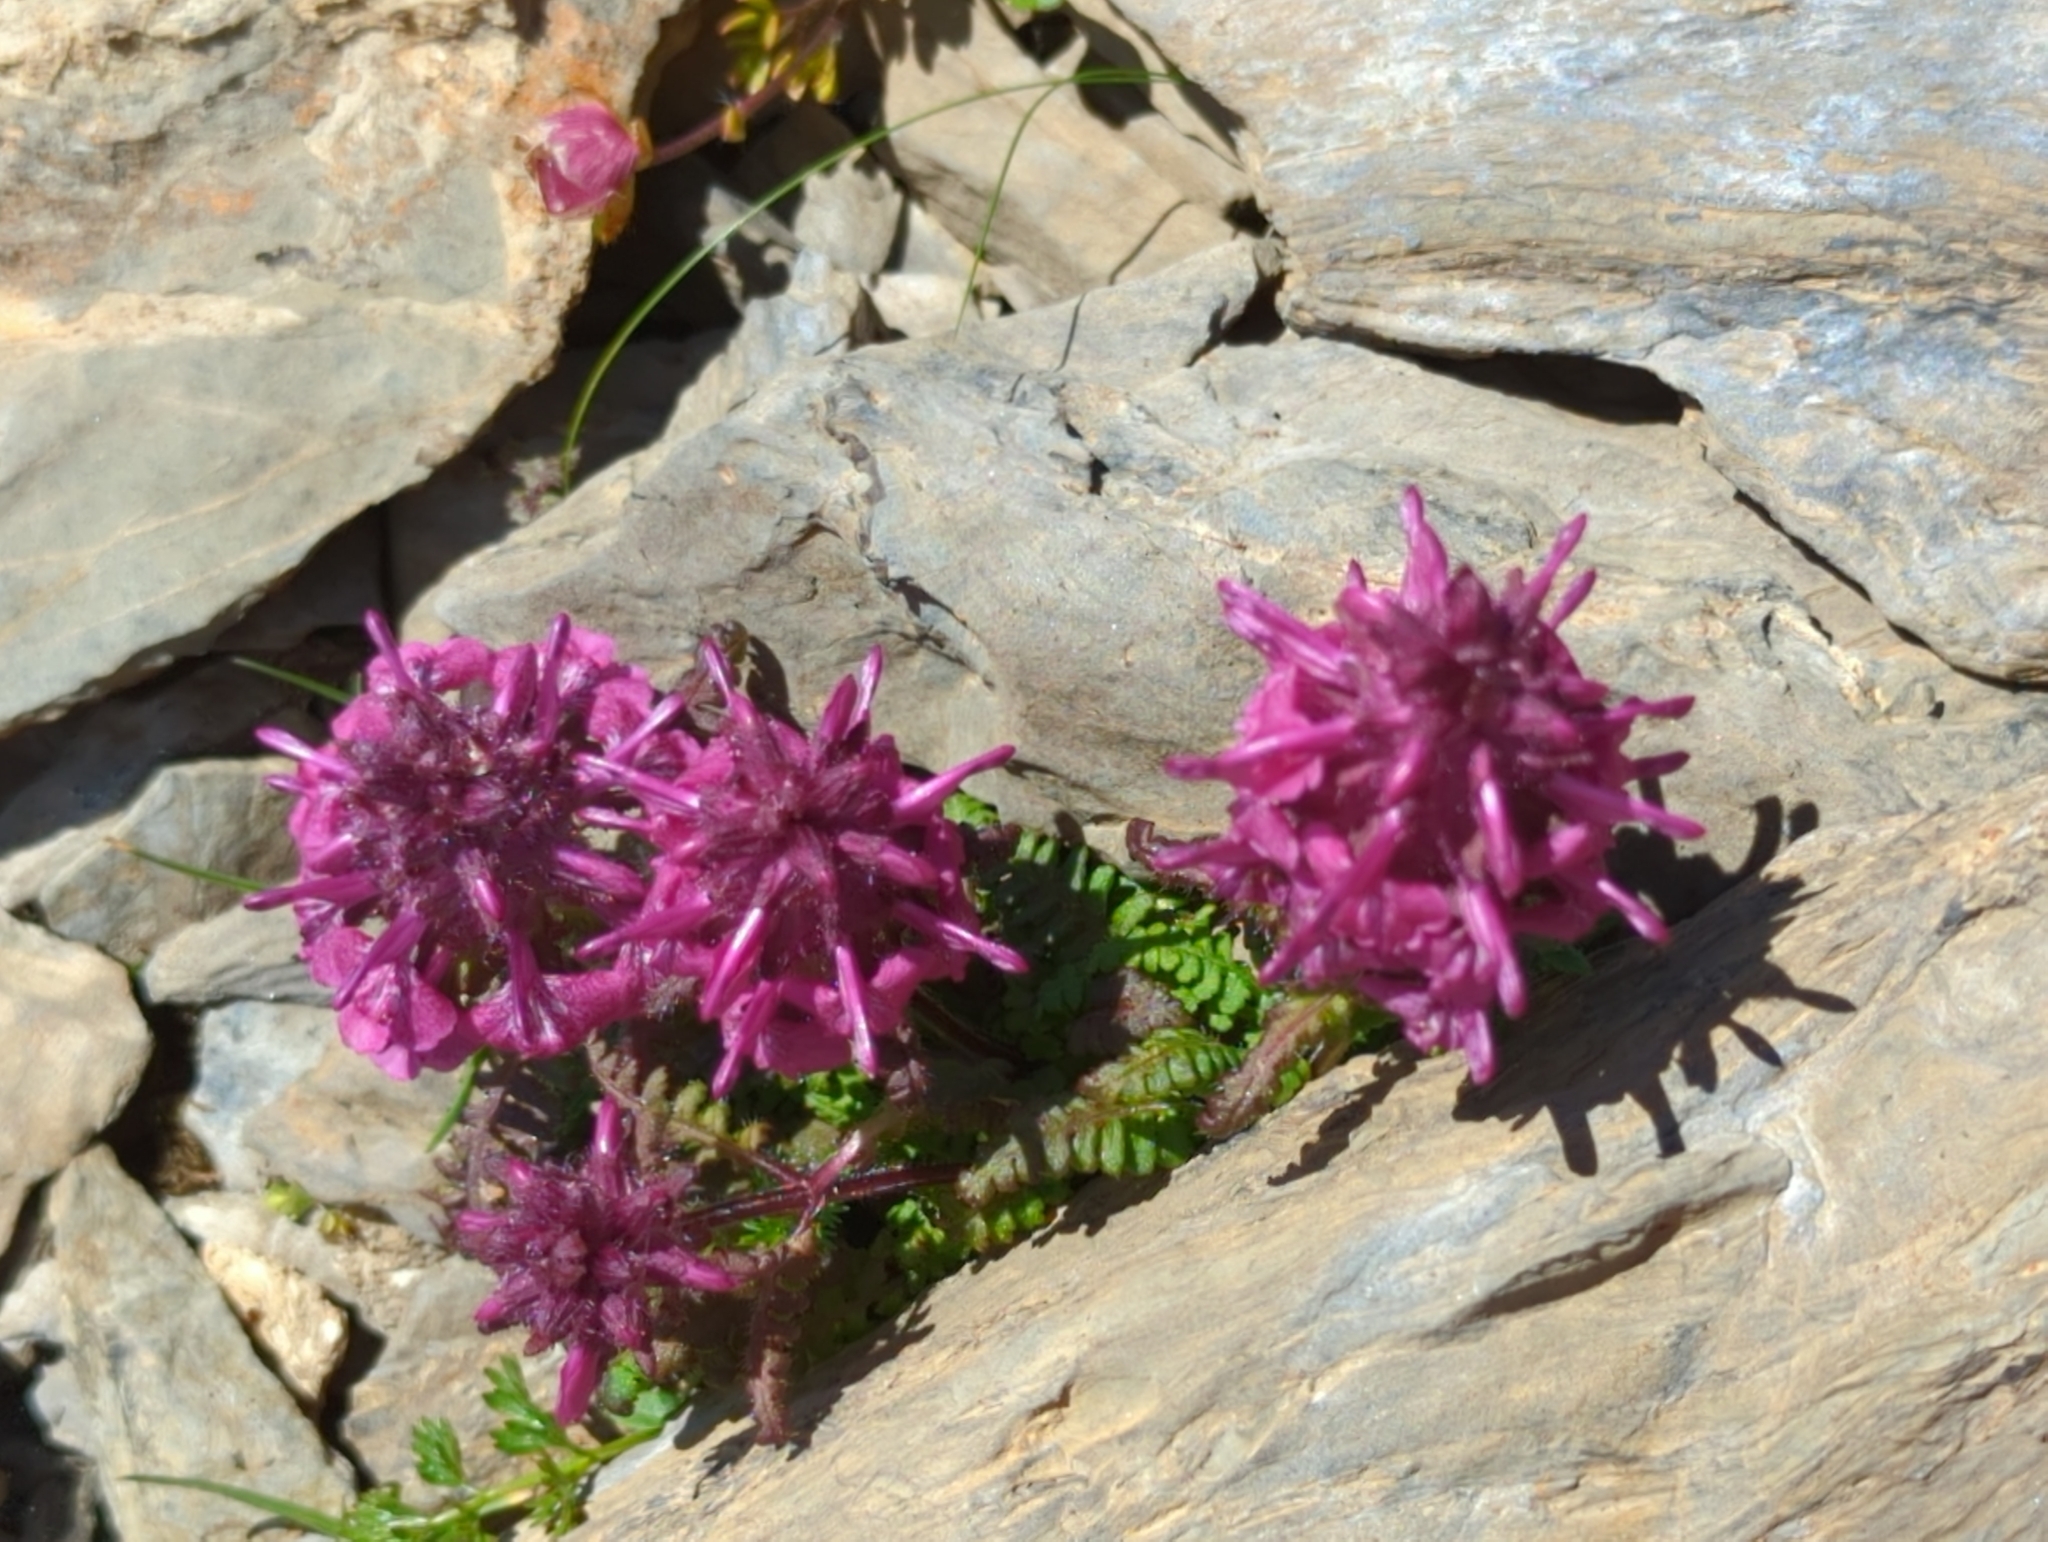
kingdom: Plantae
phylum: Tracheophyta
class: Magnoliopsida
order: Lamiales
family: Orobanchaceae
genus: Pedicularis
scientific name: Pedicularis verticillata
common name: Whorled lousewort
